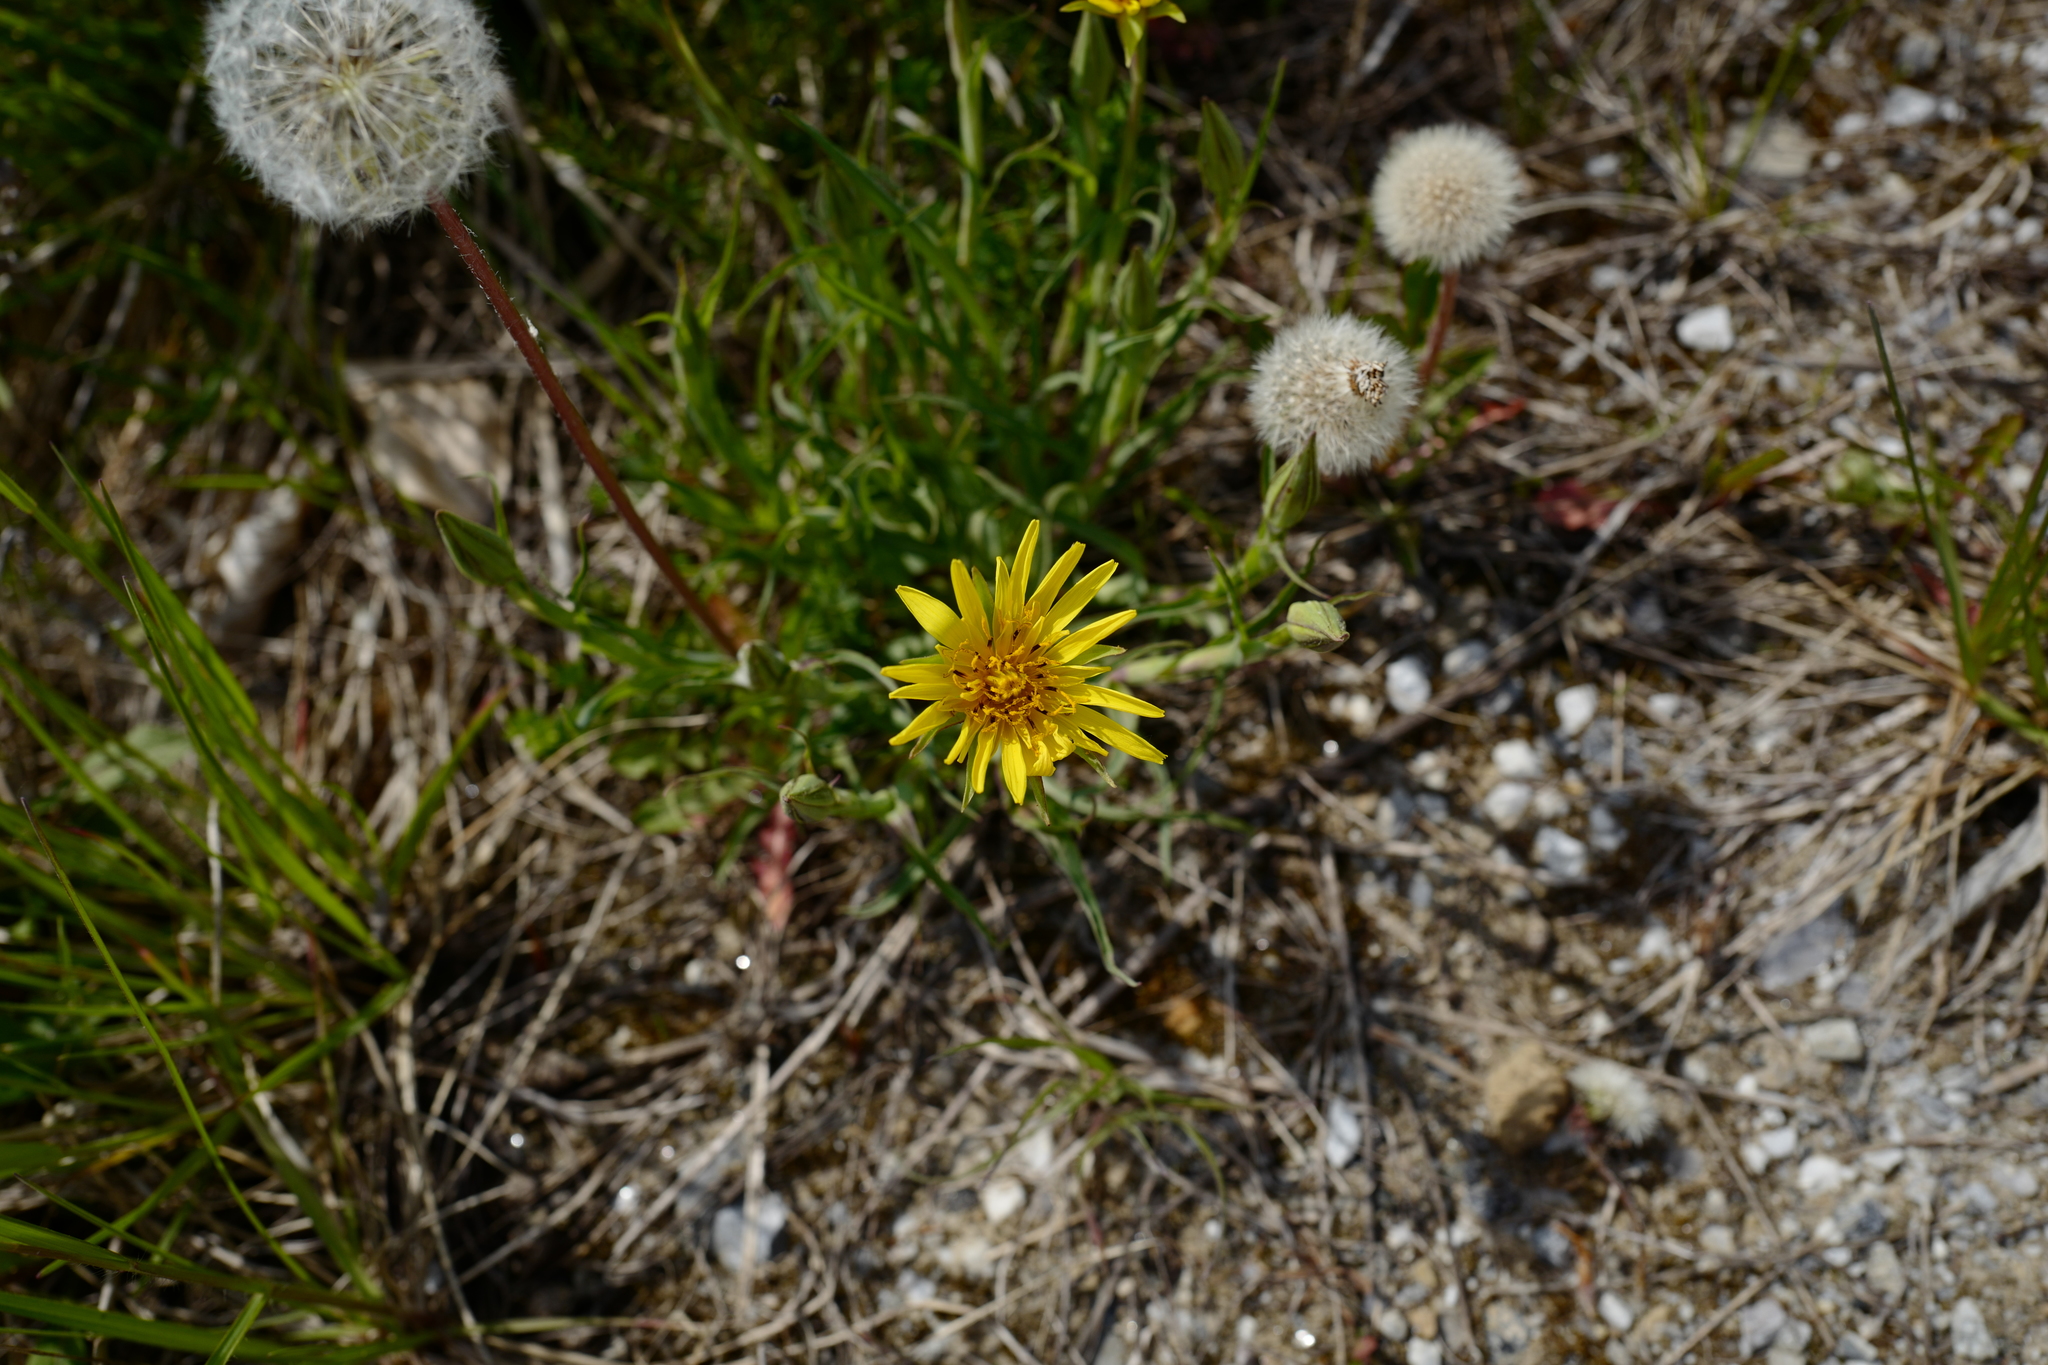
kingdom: Plantae
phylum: Tracheophyta
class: Magnoliopsida
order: Asterales
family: Asteraceae
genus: Taraxacum
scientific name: Taraxacum officinale
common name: Common dandelion
